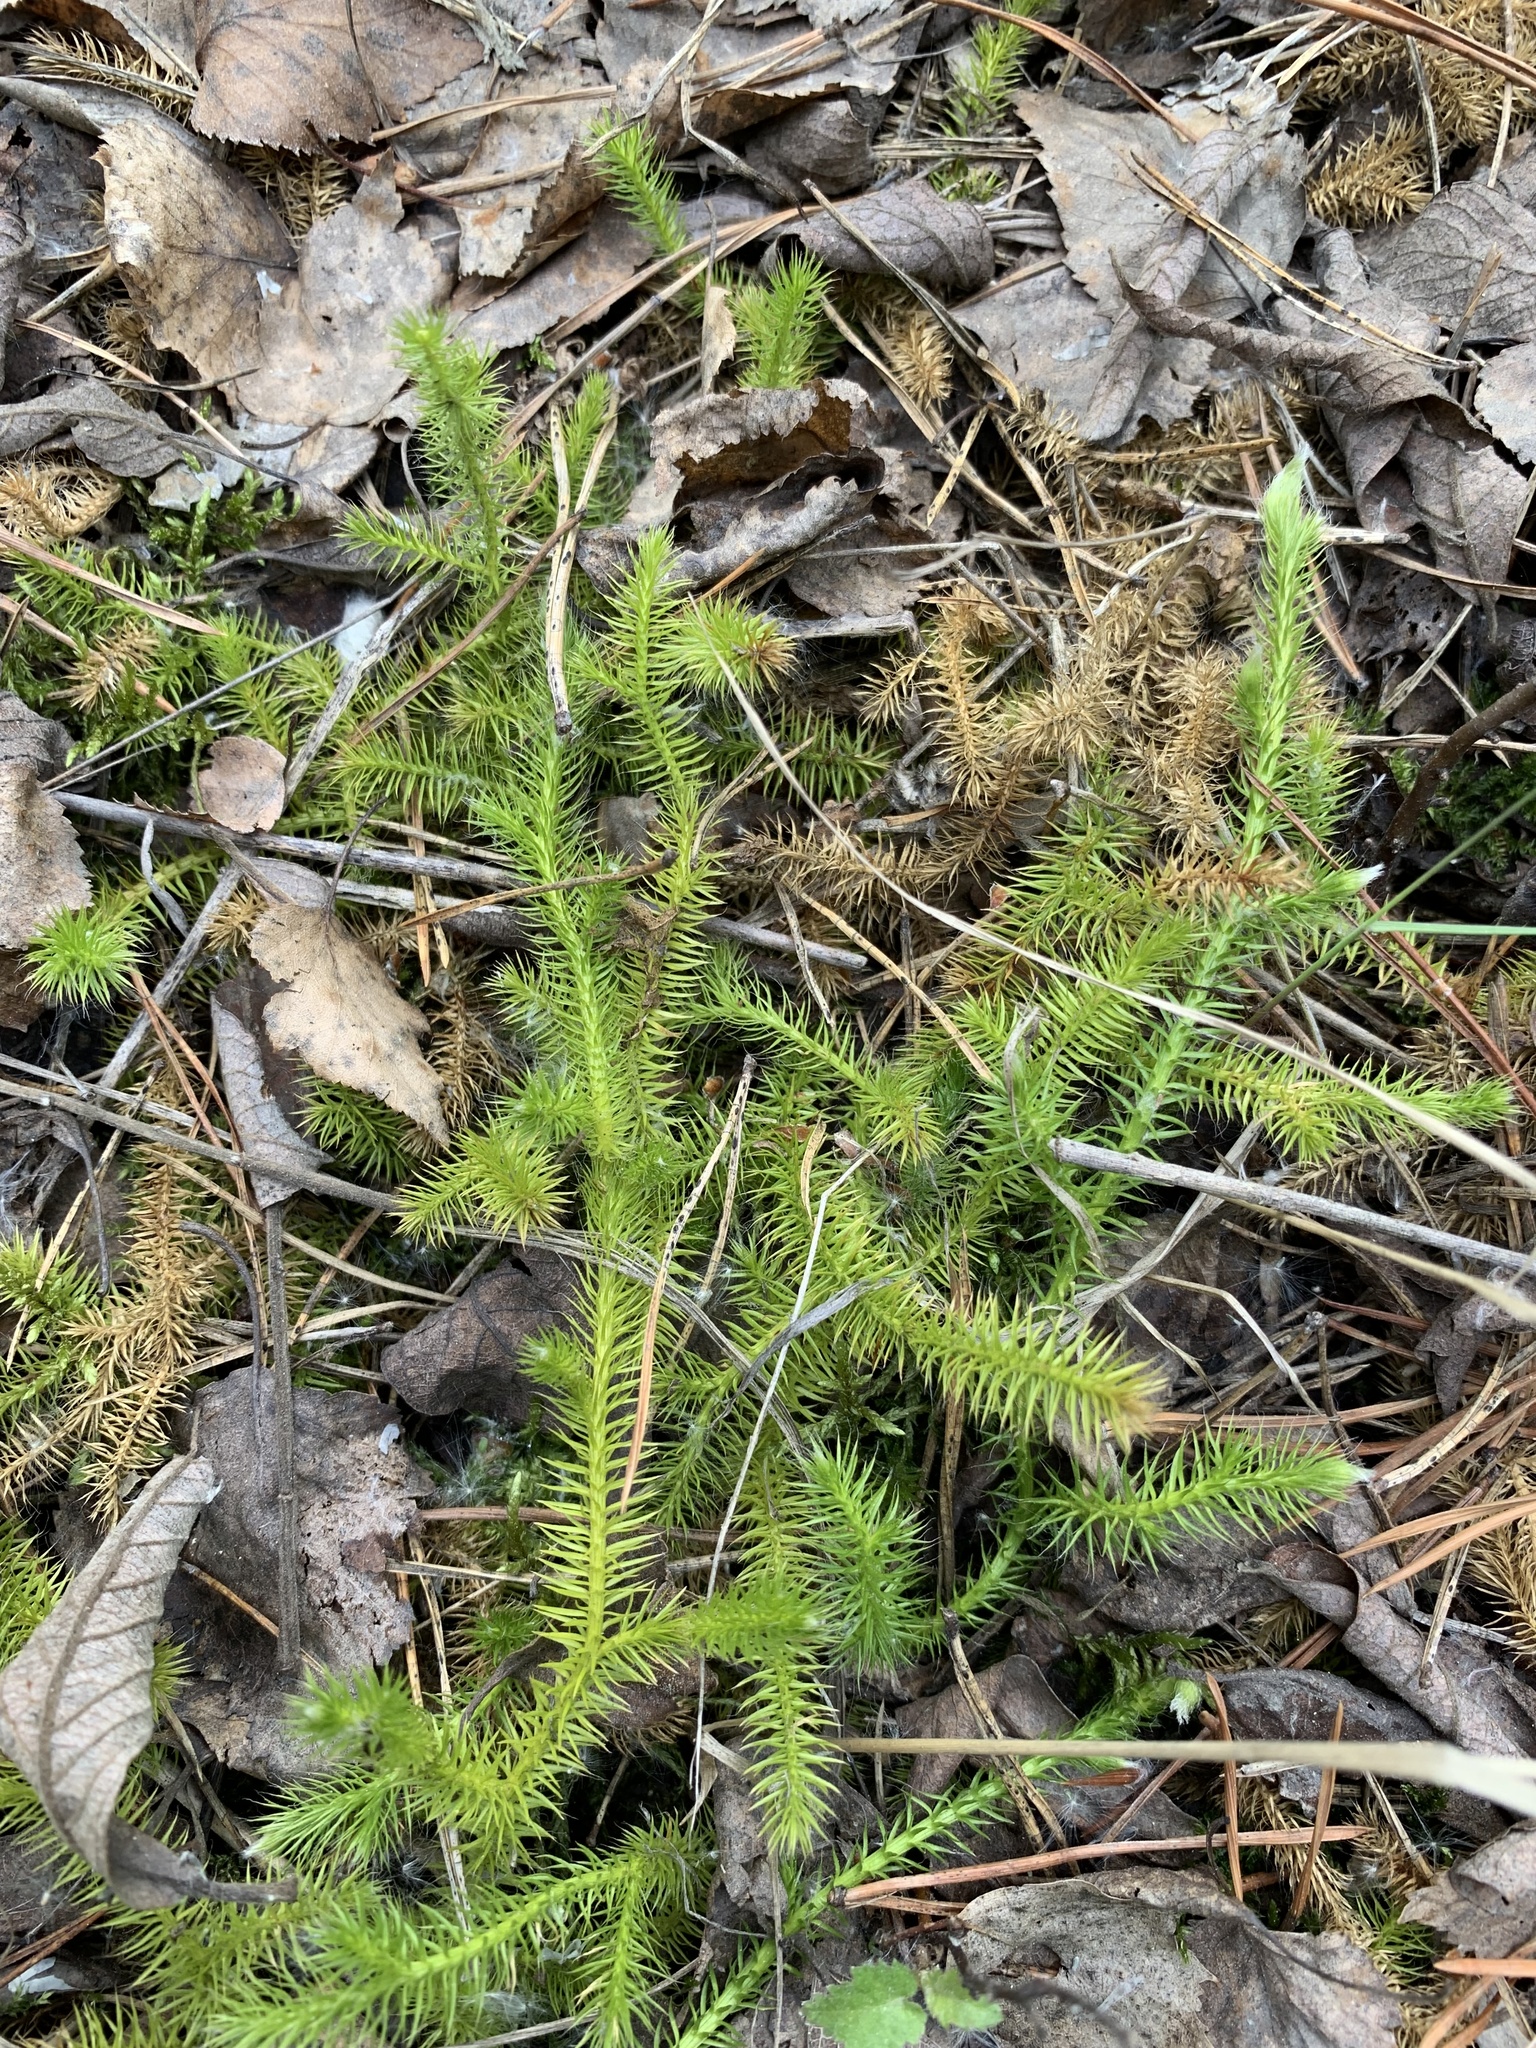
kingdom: Plantae
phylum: Tracheophyta
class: Lycopodiopsida
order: Lycopodiales
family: Lycopodiaceae
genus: Lycopodium
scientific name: Lycopodium clavatum
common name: Stag's-horn clubmoss
